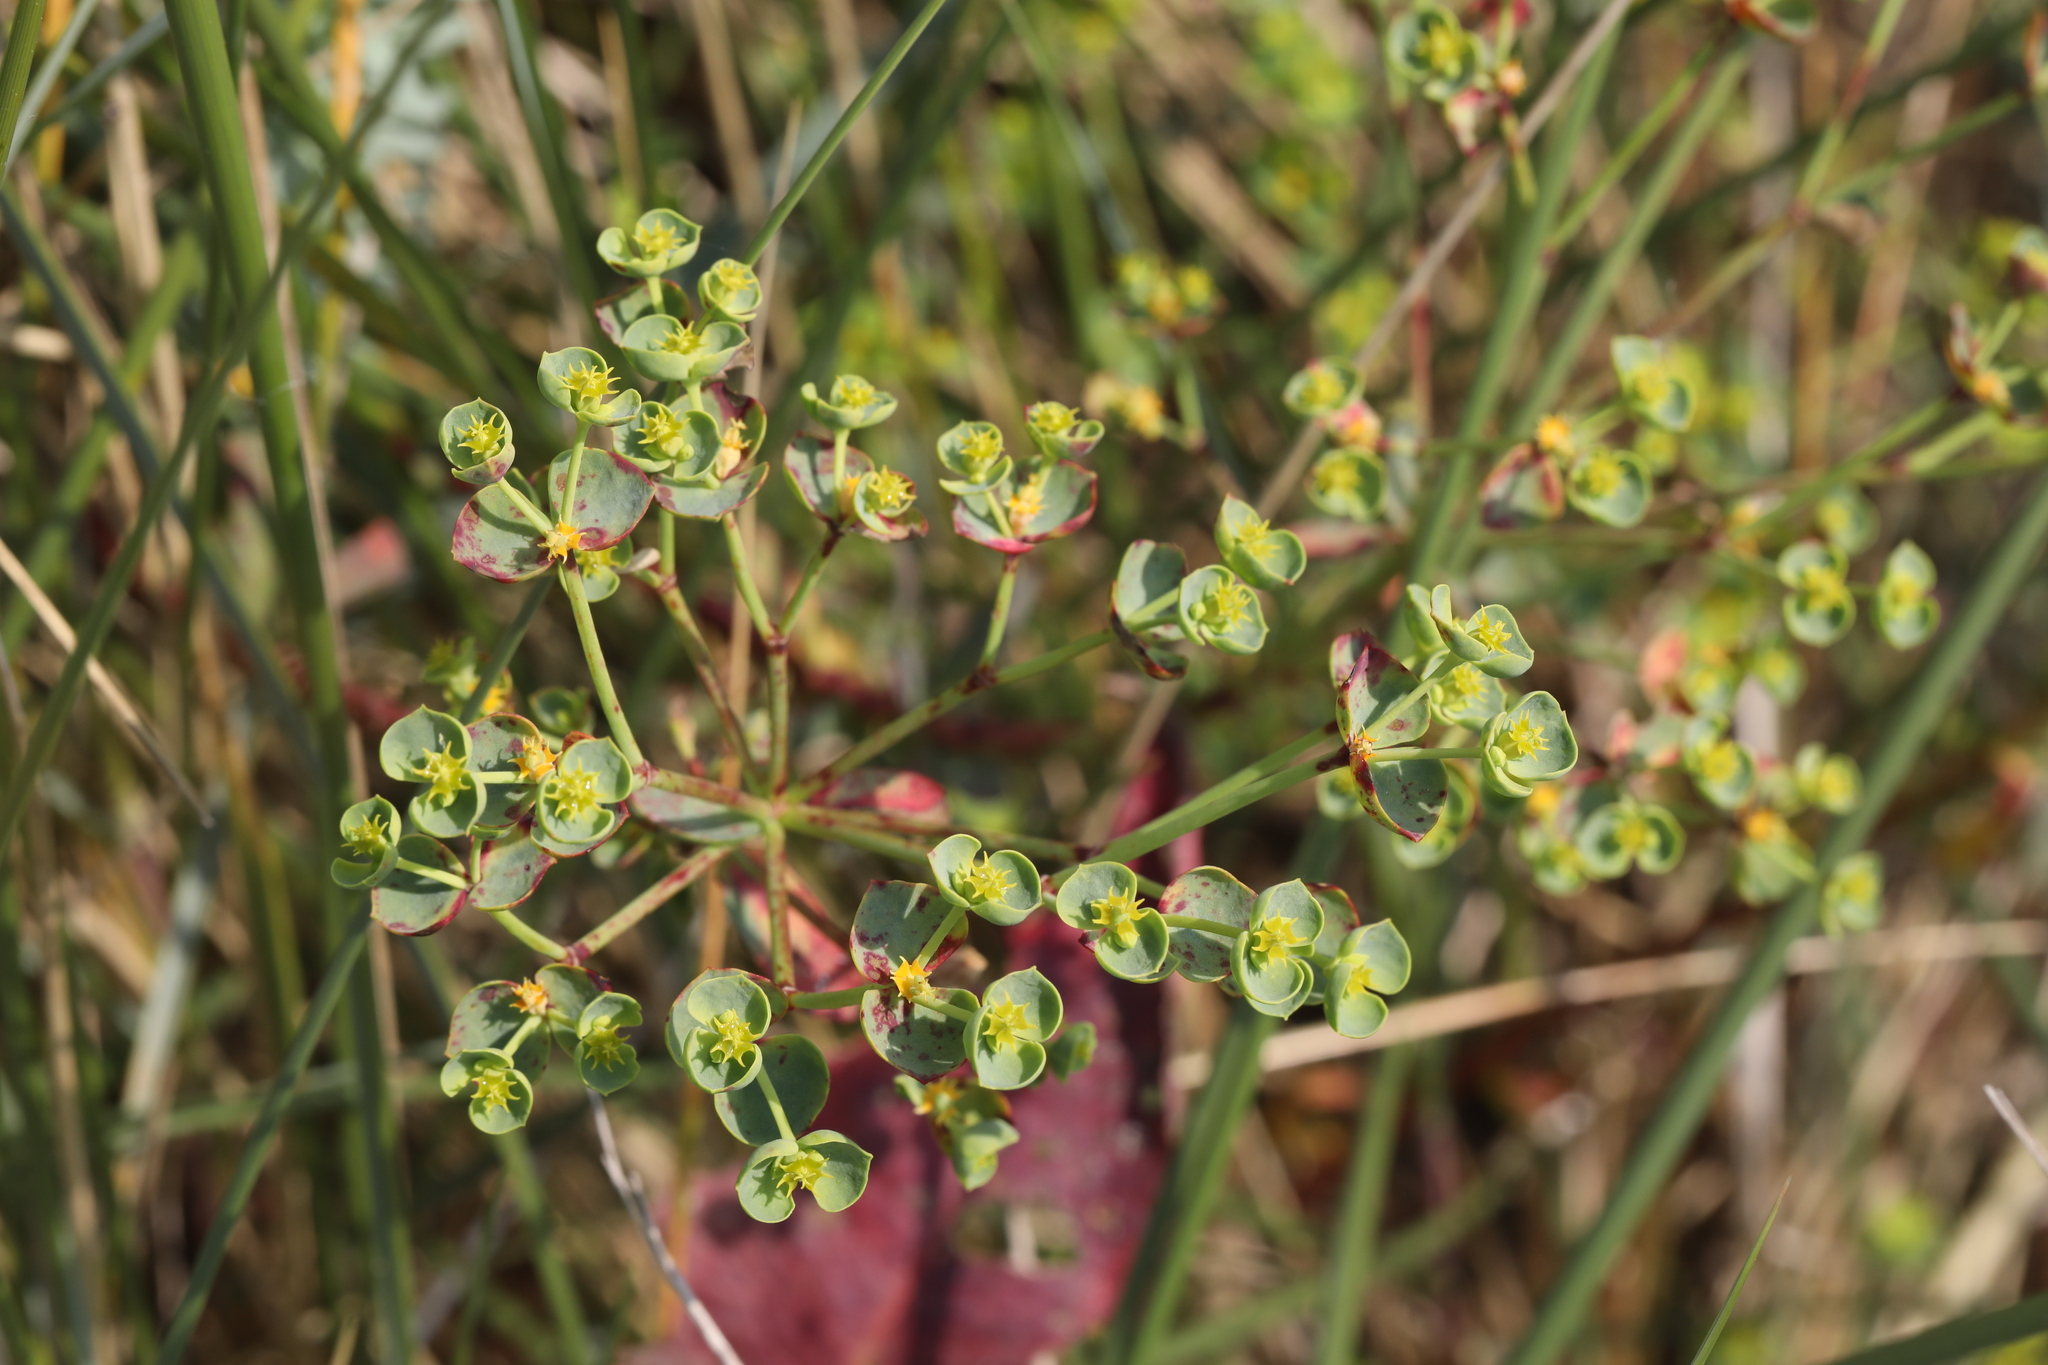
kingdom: Plantae
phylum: Tracheophyta
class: Magnoliopsida
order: Malpighiales
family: Euphorbiaceae
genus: Euphorbia
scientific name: Euphorbia portlandica
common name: Portland spurge
